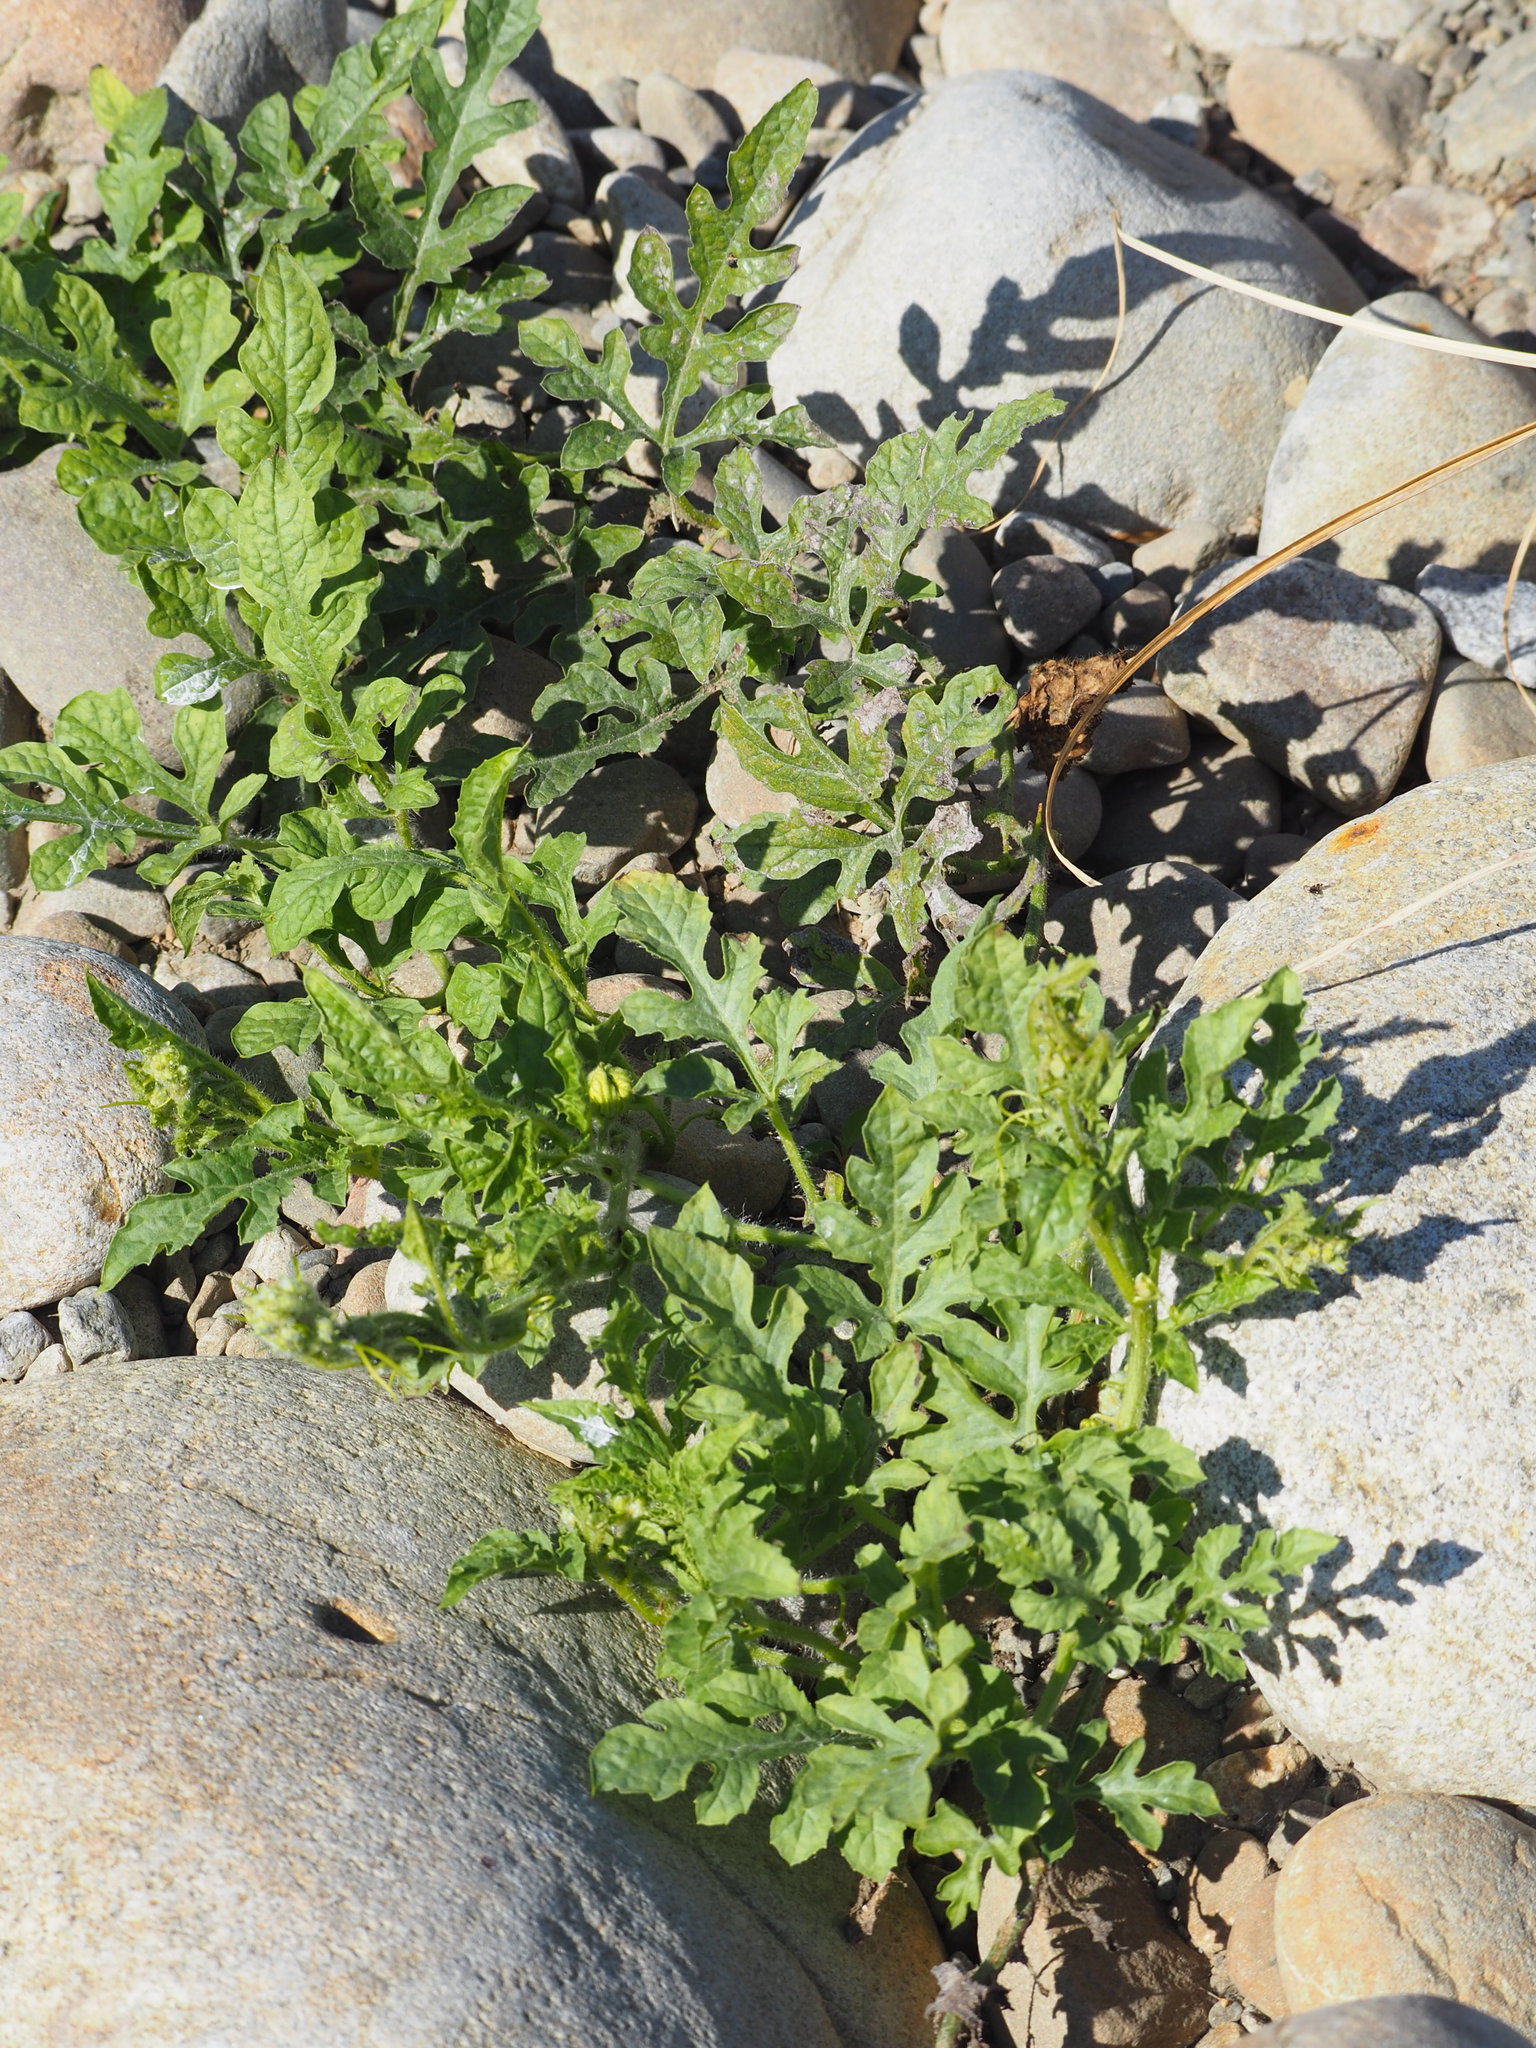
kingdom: Plantae
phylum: Tracheophyta
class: Magnoliopsida
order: Cucurbitales
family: Cucurbitaceae
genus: Citrullus
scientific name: Citrullus lanatus
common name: Watermelon
